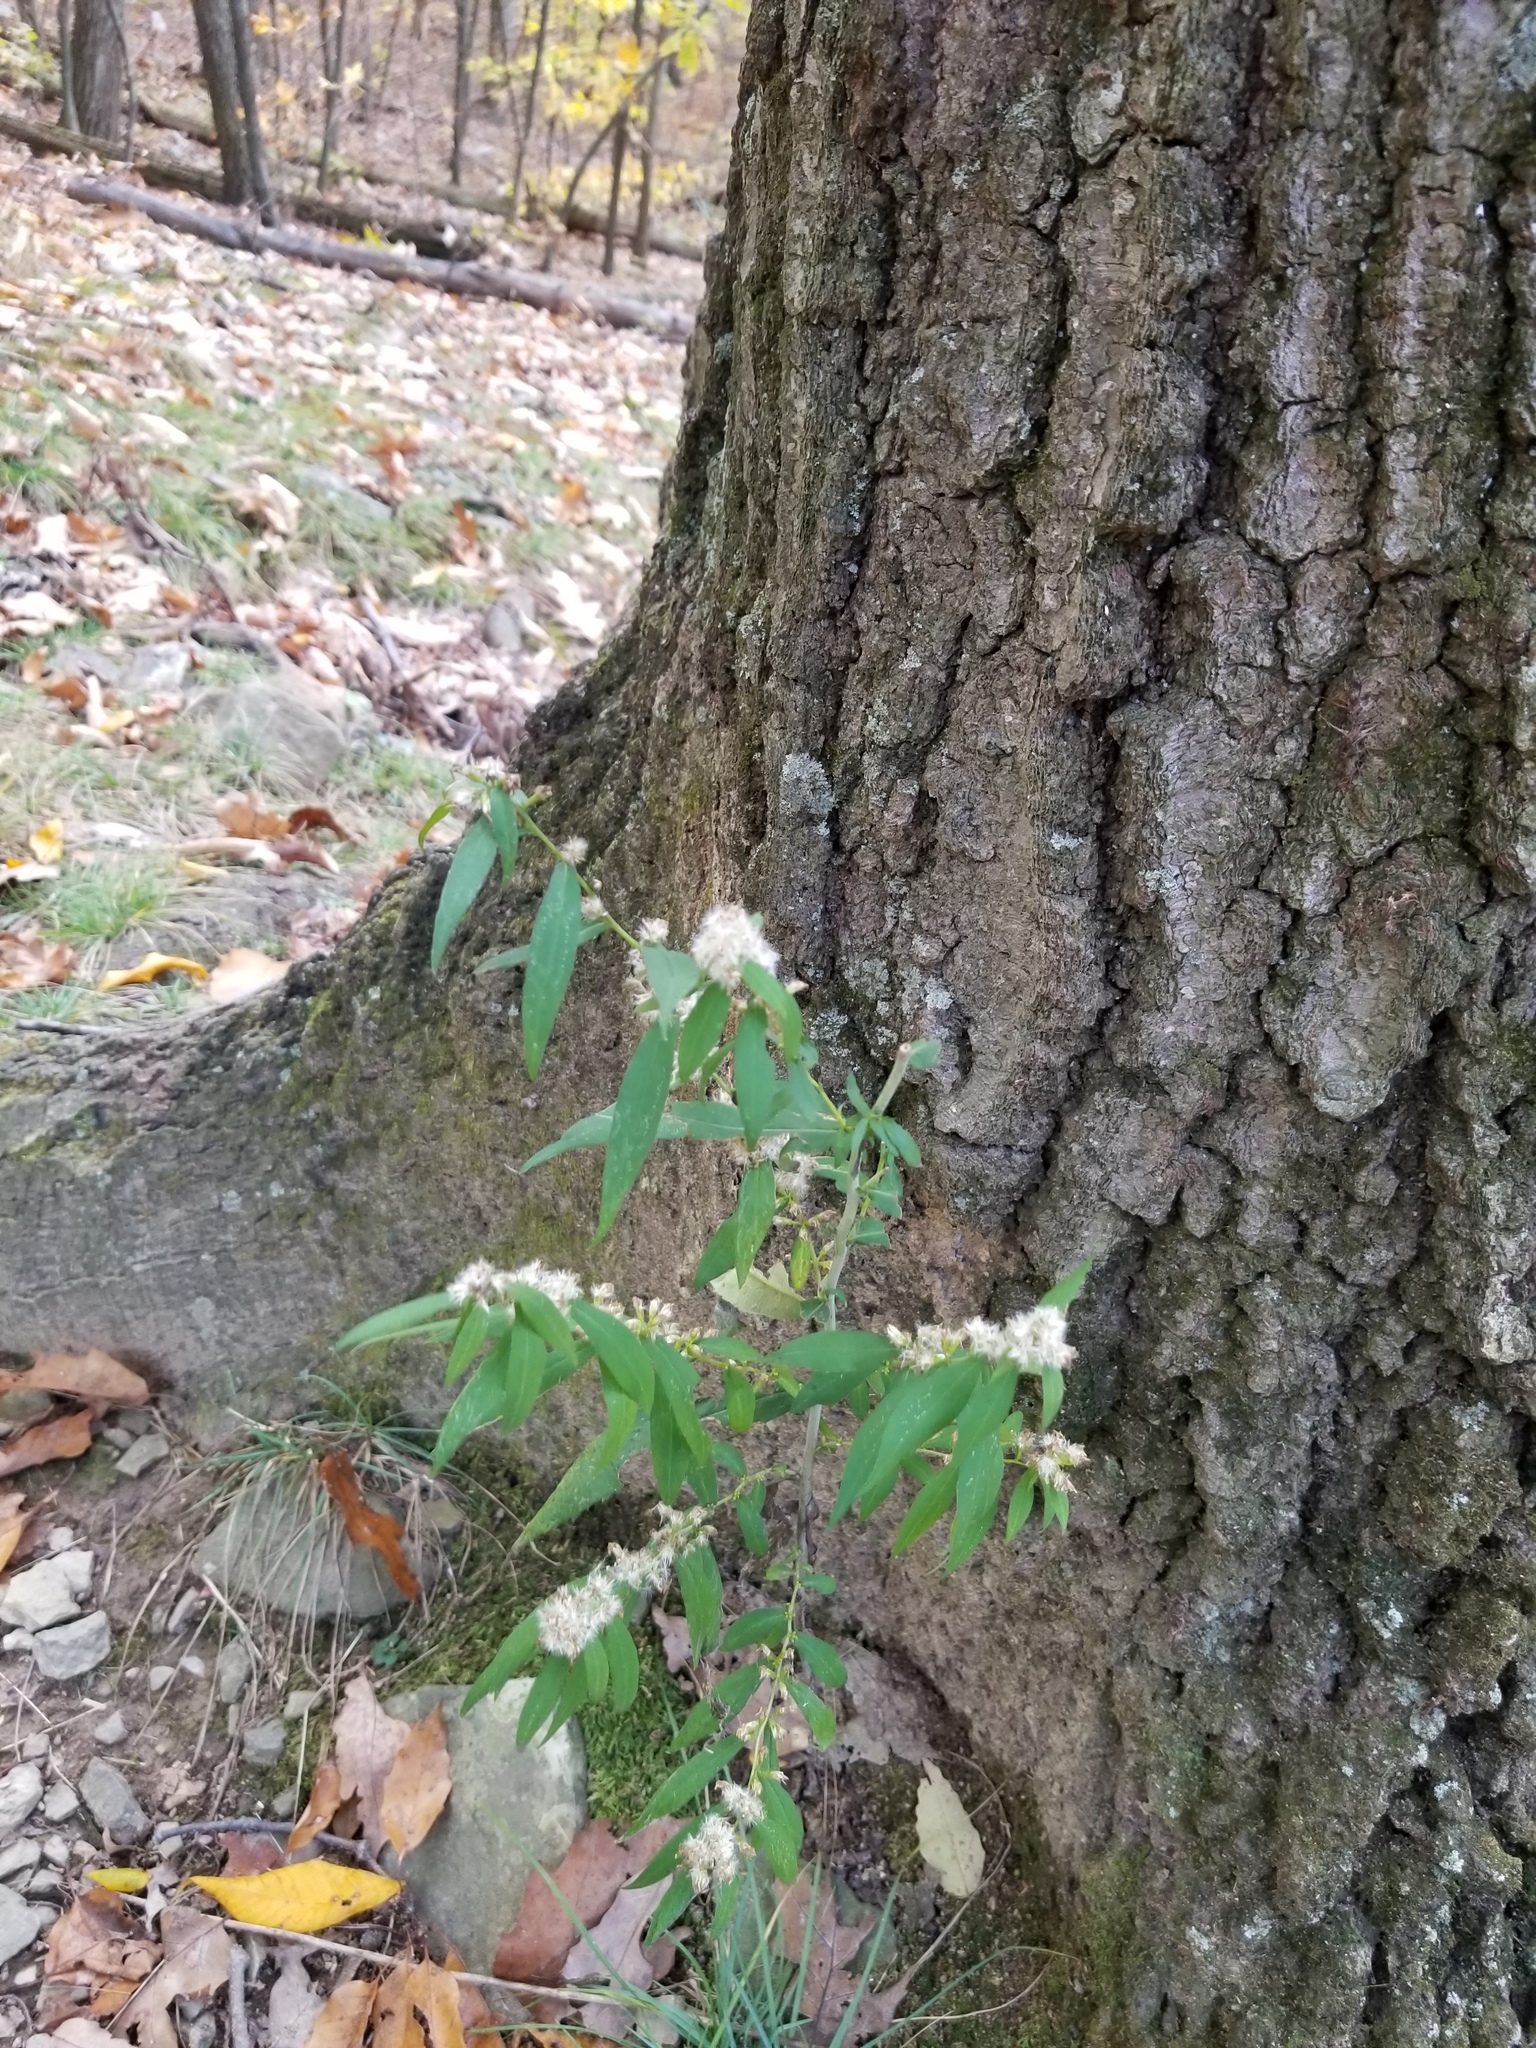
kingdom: Plantae
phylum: Tracheophyta
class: Magnoliopsida
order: Asterales
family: Asteraceae
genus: Solidago
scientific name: Solidago caesia
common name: Woodland goldenrod
